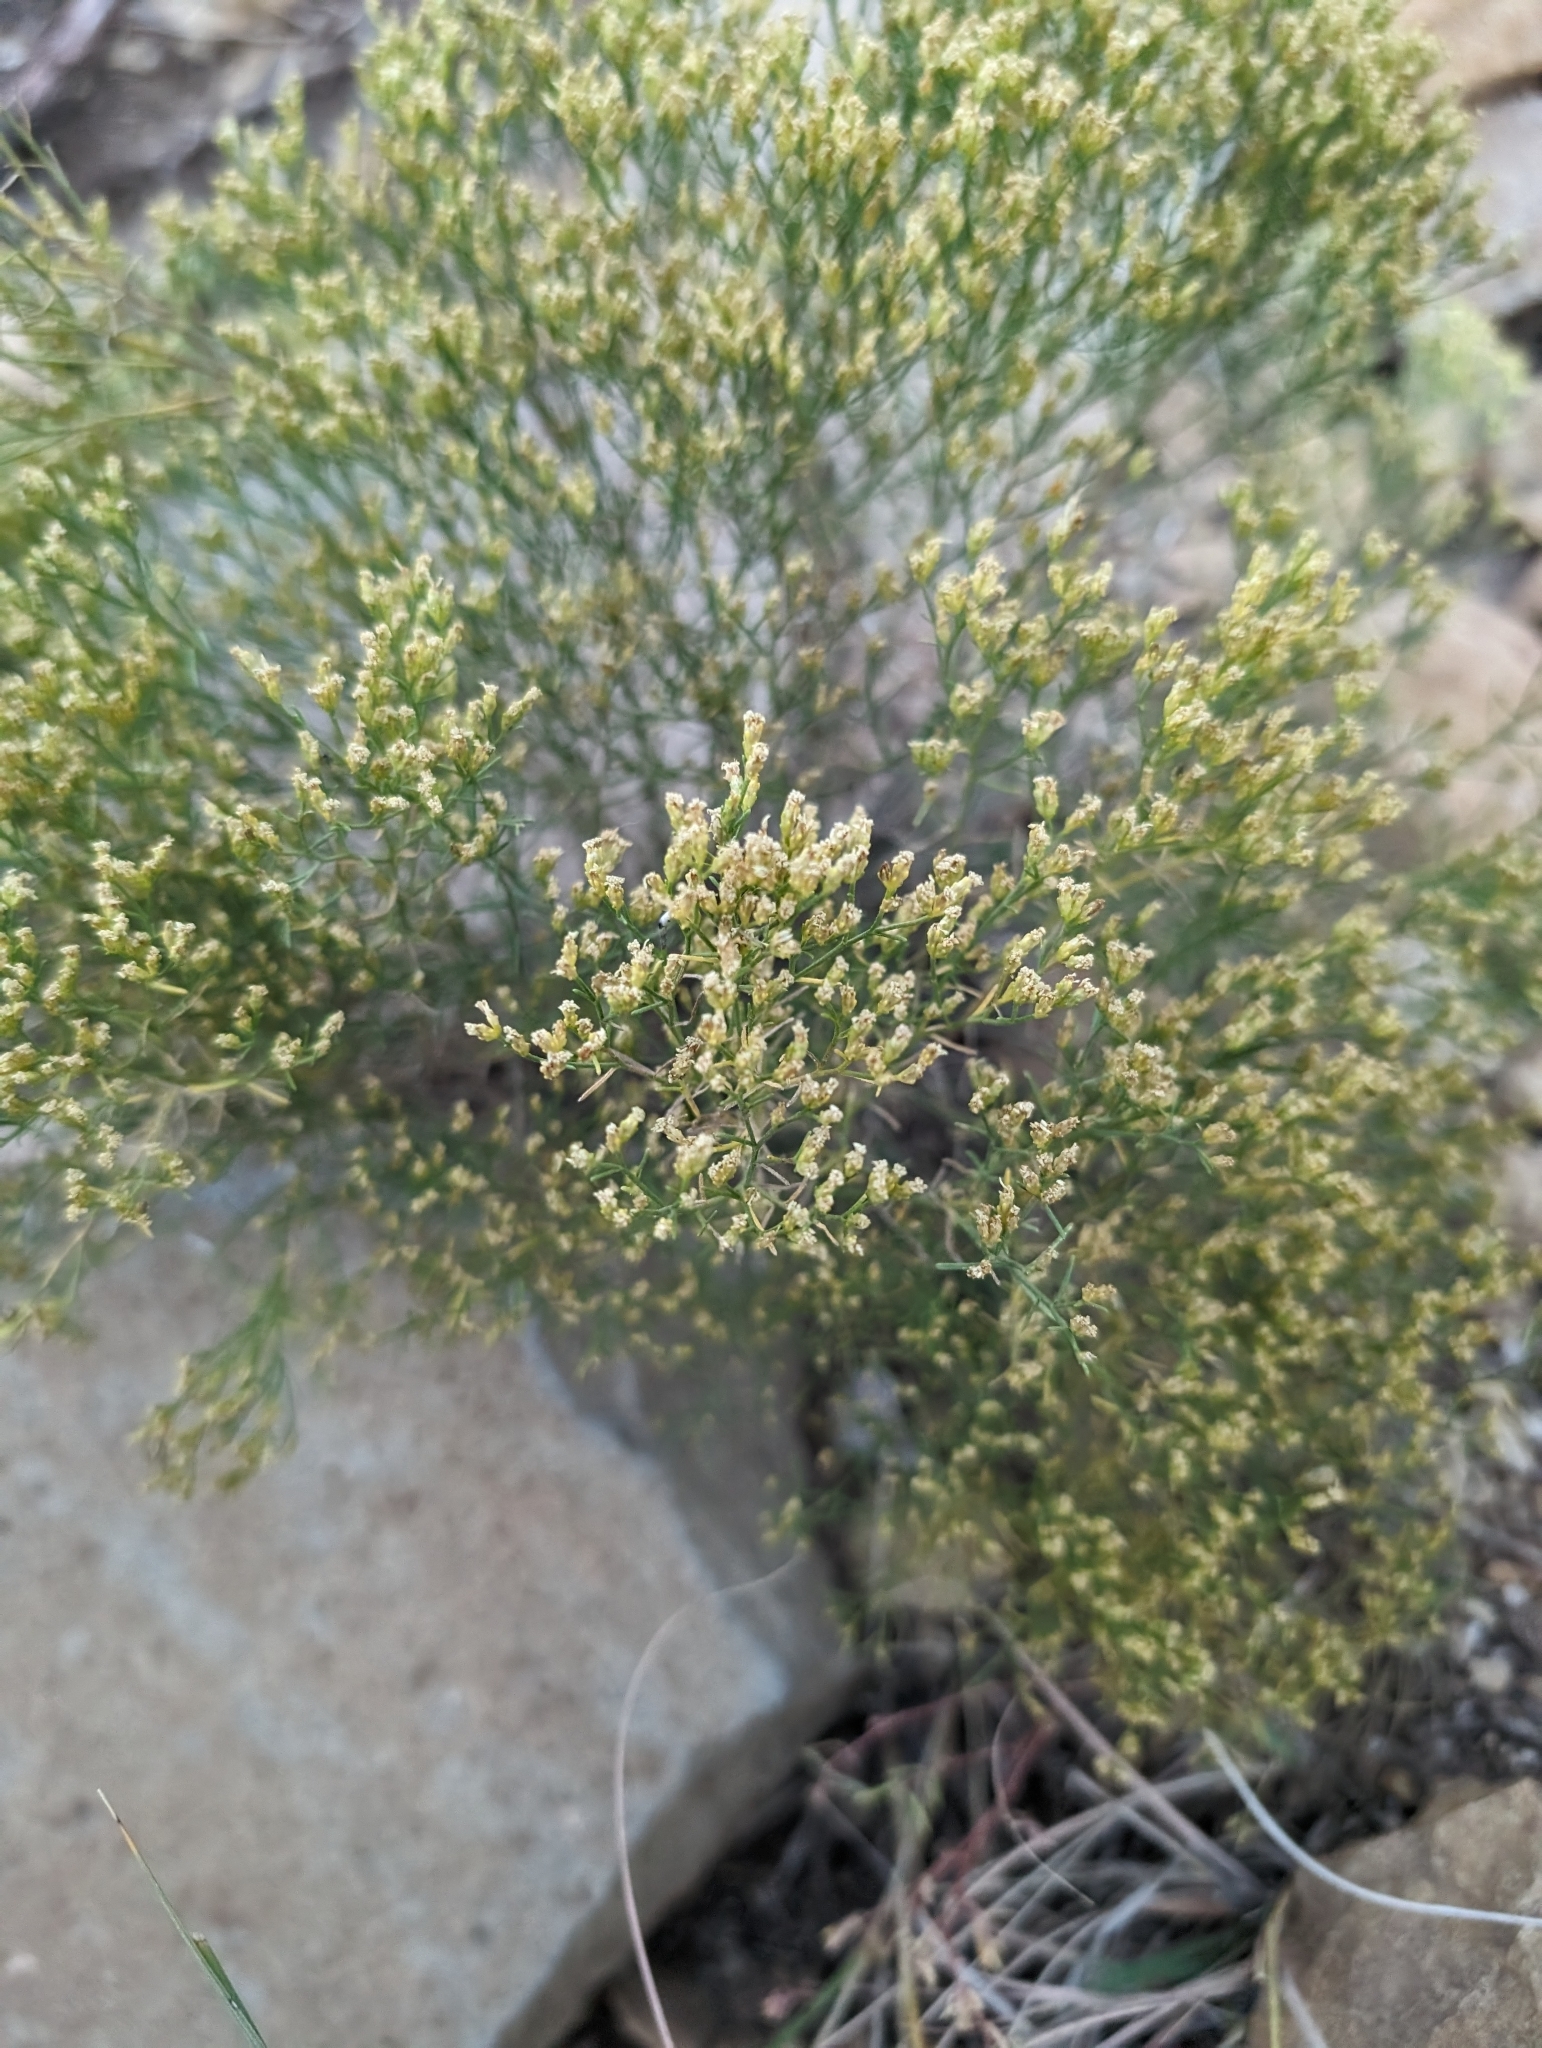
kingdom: Plantae
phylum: Tracheophyta
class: Magnoliopsida
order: Asterales
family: Asteraceae
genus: Gutierrezia
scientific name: Gutierrezia sarothrae
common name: Broom snakeweed
